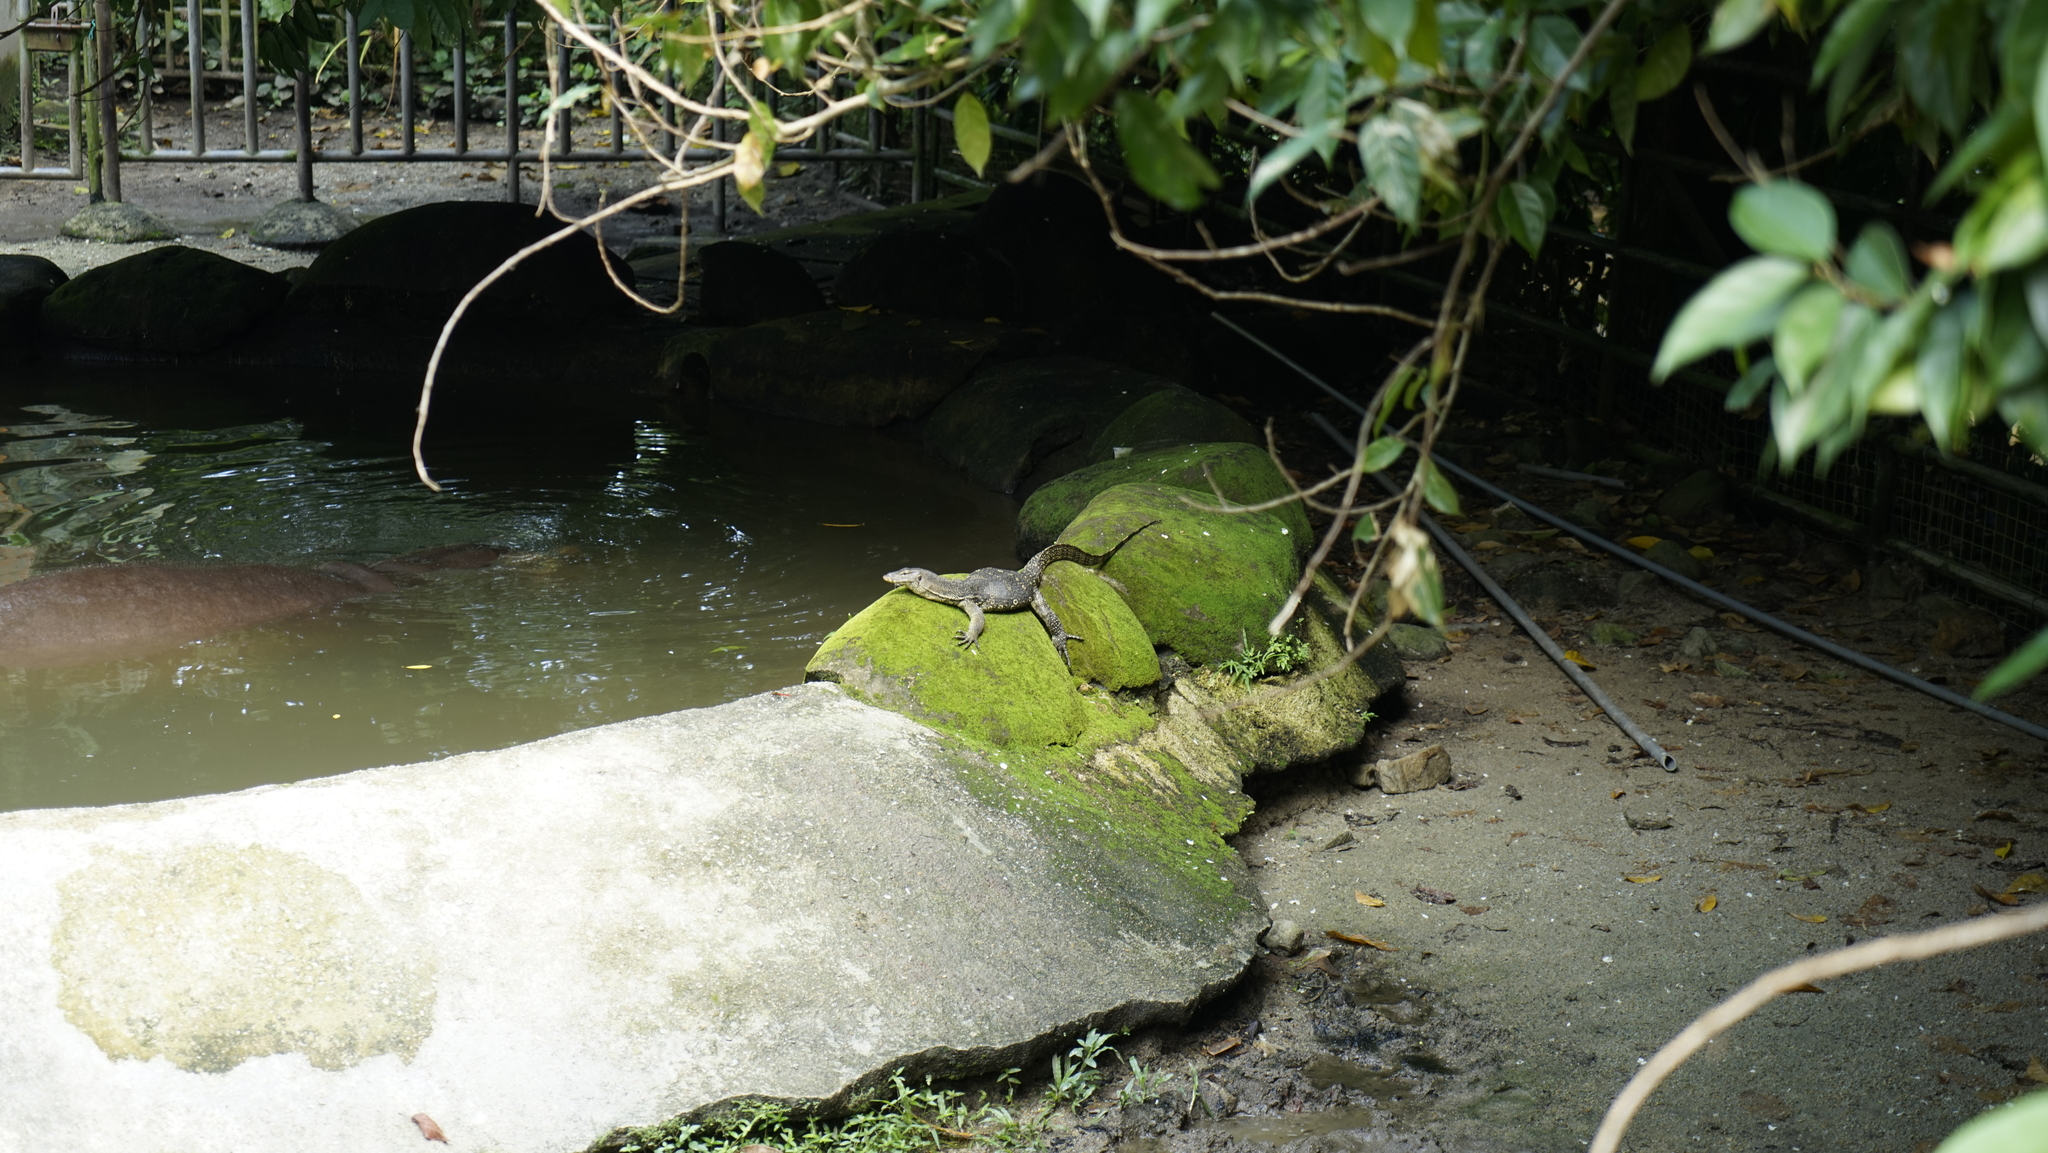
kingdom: Animalia
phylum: Chordata
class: Squamata
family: Varanidae
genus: Varanus
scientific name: Varanus salvator
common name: Common water monitor
